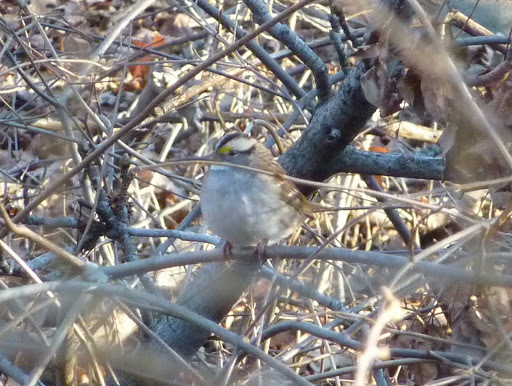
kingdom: Animalia
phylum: Chordata
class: Aves
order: Passeriformes
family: Passerellidae
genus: Zonotrichia
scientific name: Zonotrichia albicollis
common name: White-throated sparrow
